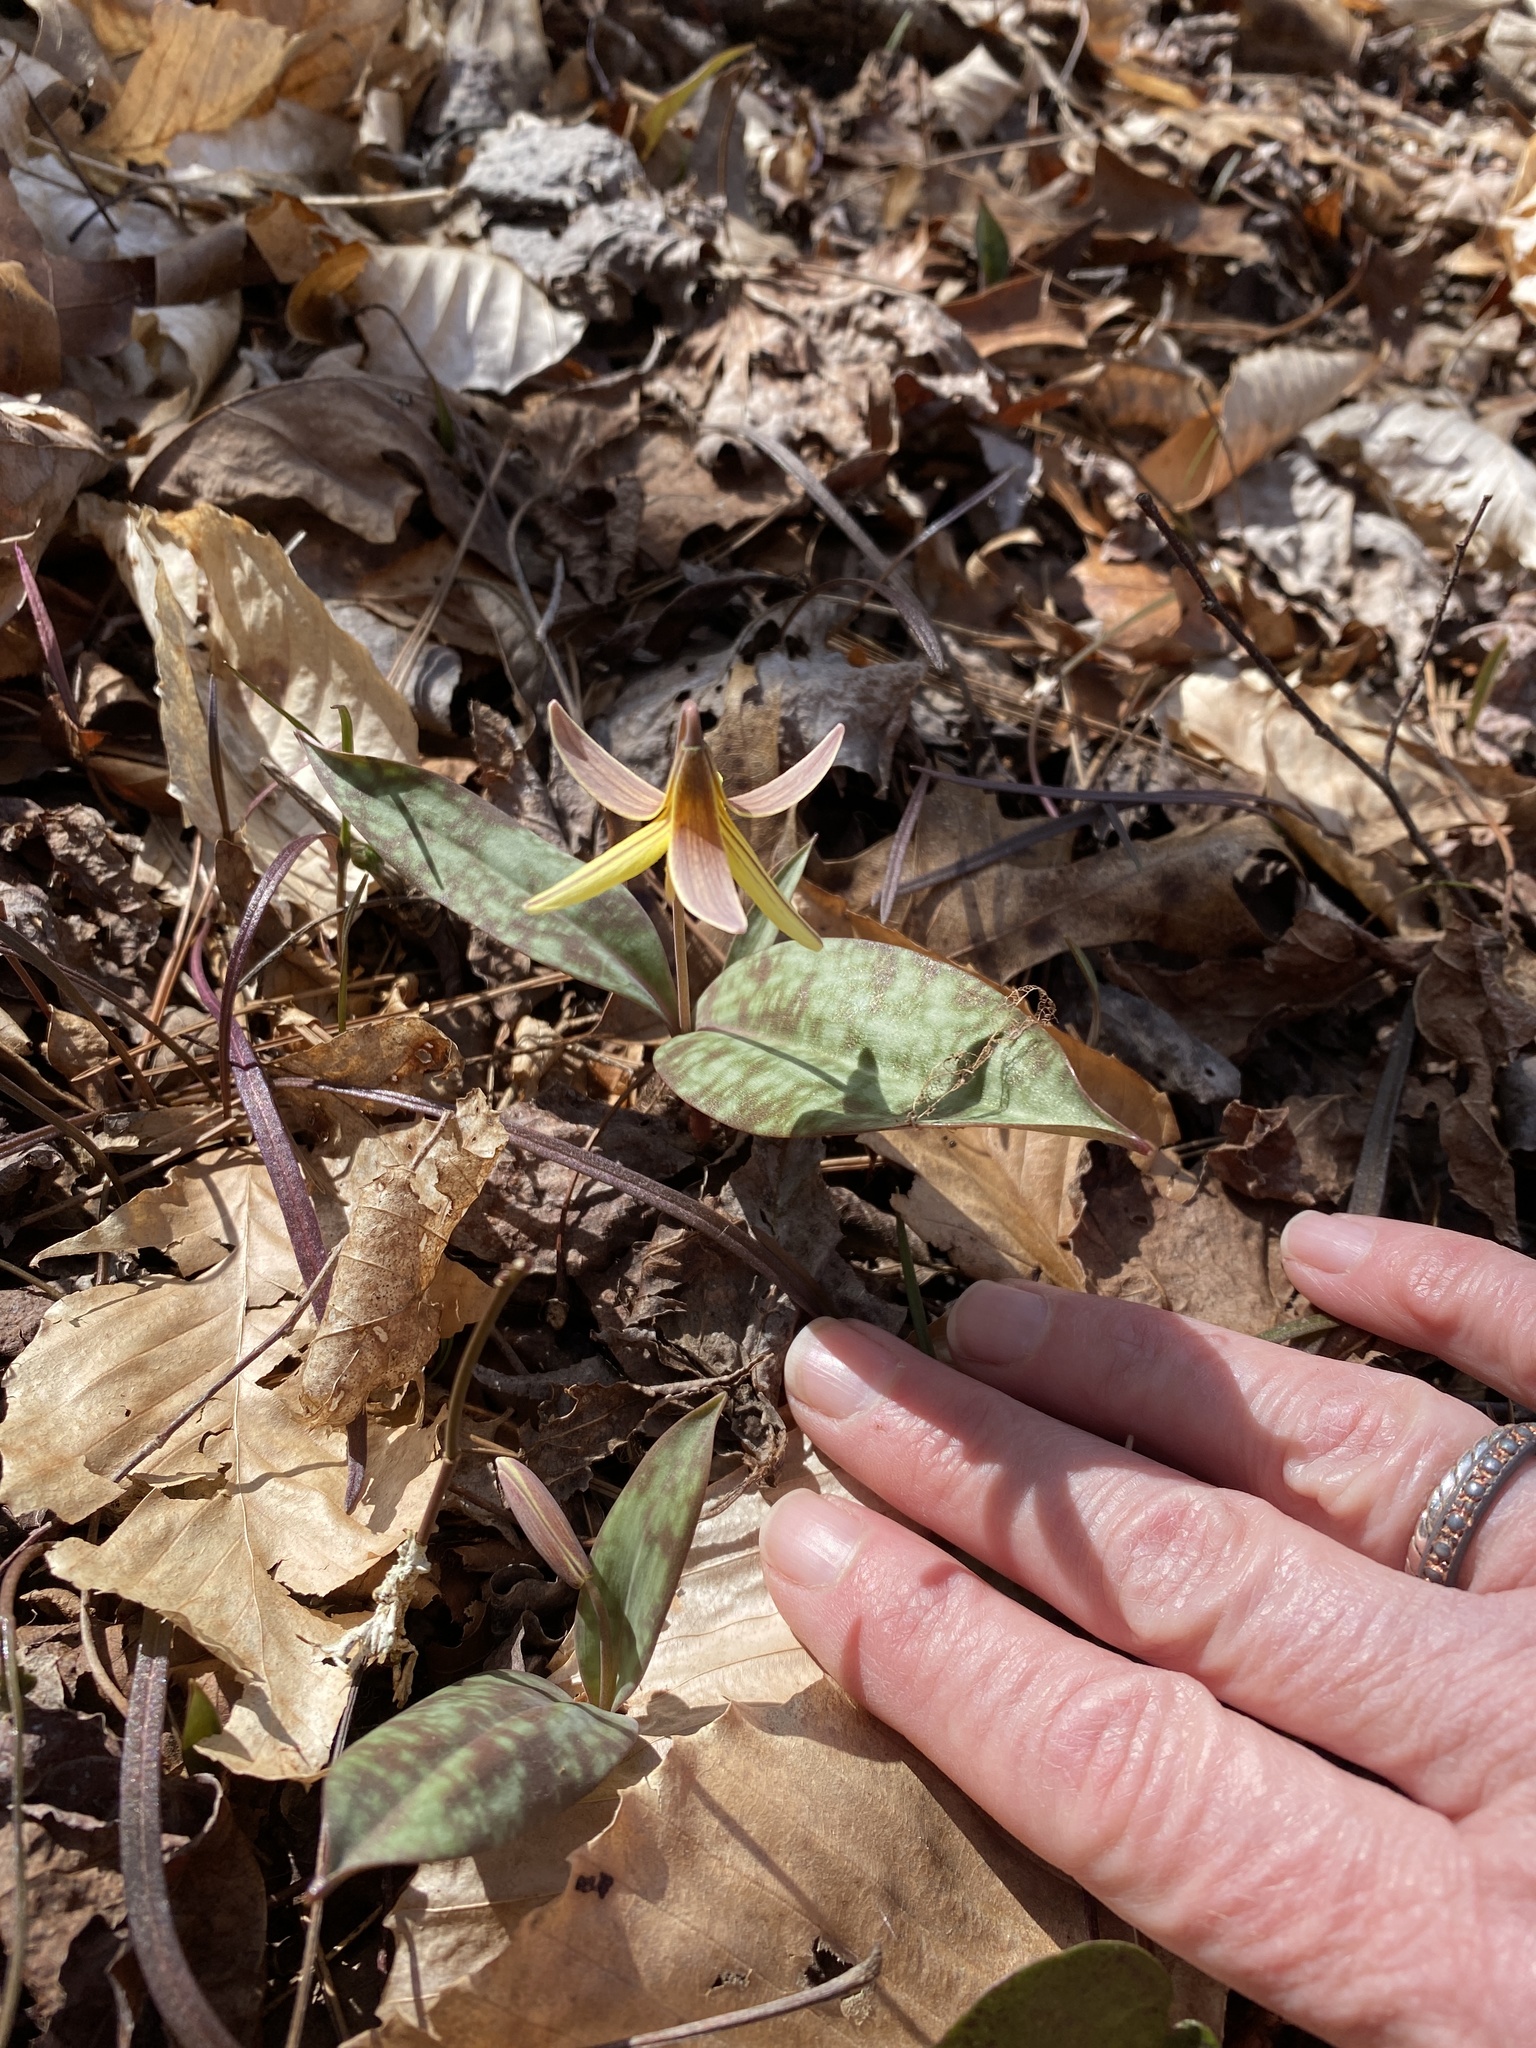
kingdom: Plantae
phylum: Tracheophyta
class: Liliopsida
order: Liliales
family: Liliaceae
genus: Erythronium
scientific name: Erythronium umbilicatum
